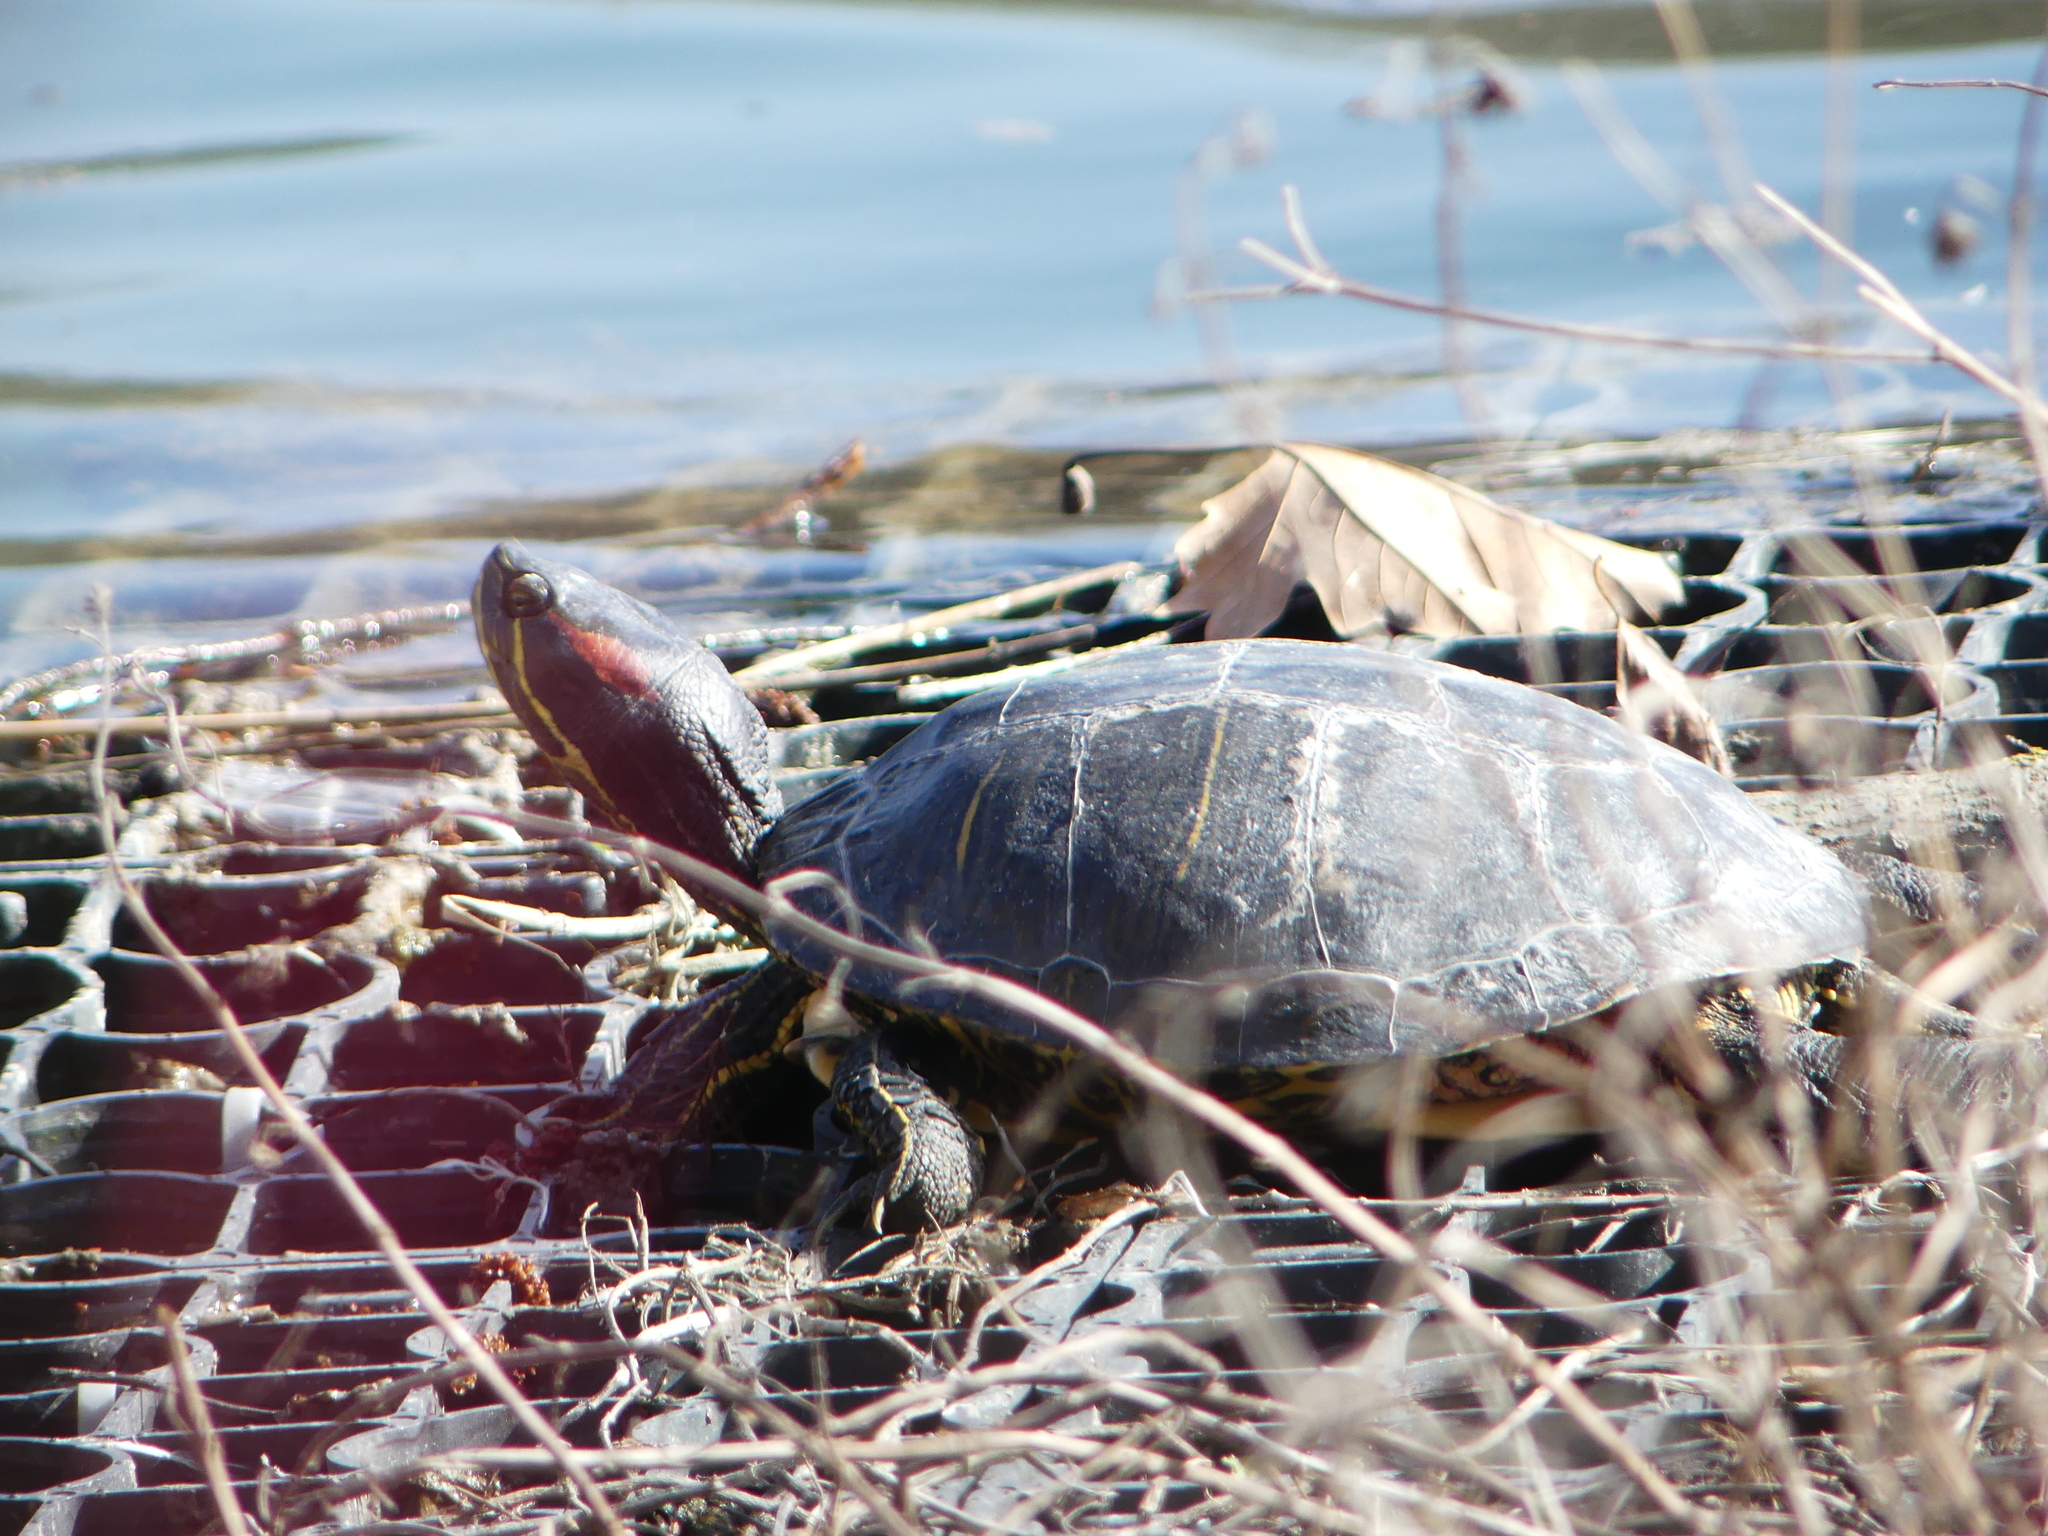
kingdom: Animalia
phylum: Chordata
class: Testudines
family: Emydidae
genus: Trachemys
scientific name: Trachemys scripta
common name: Slider
